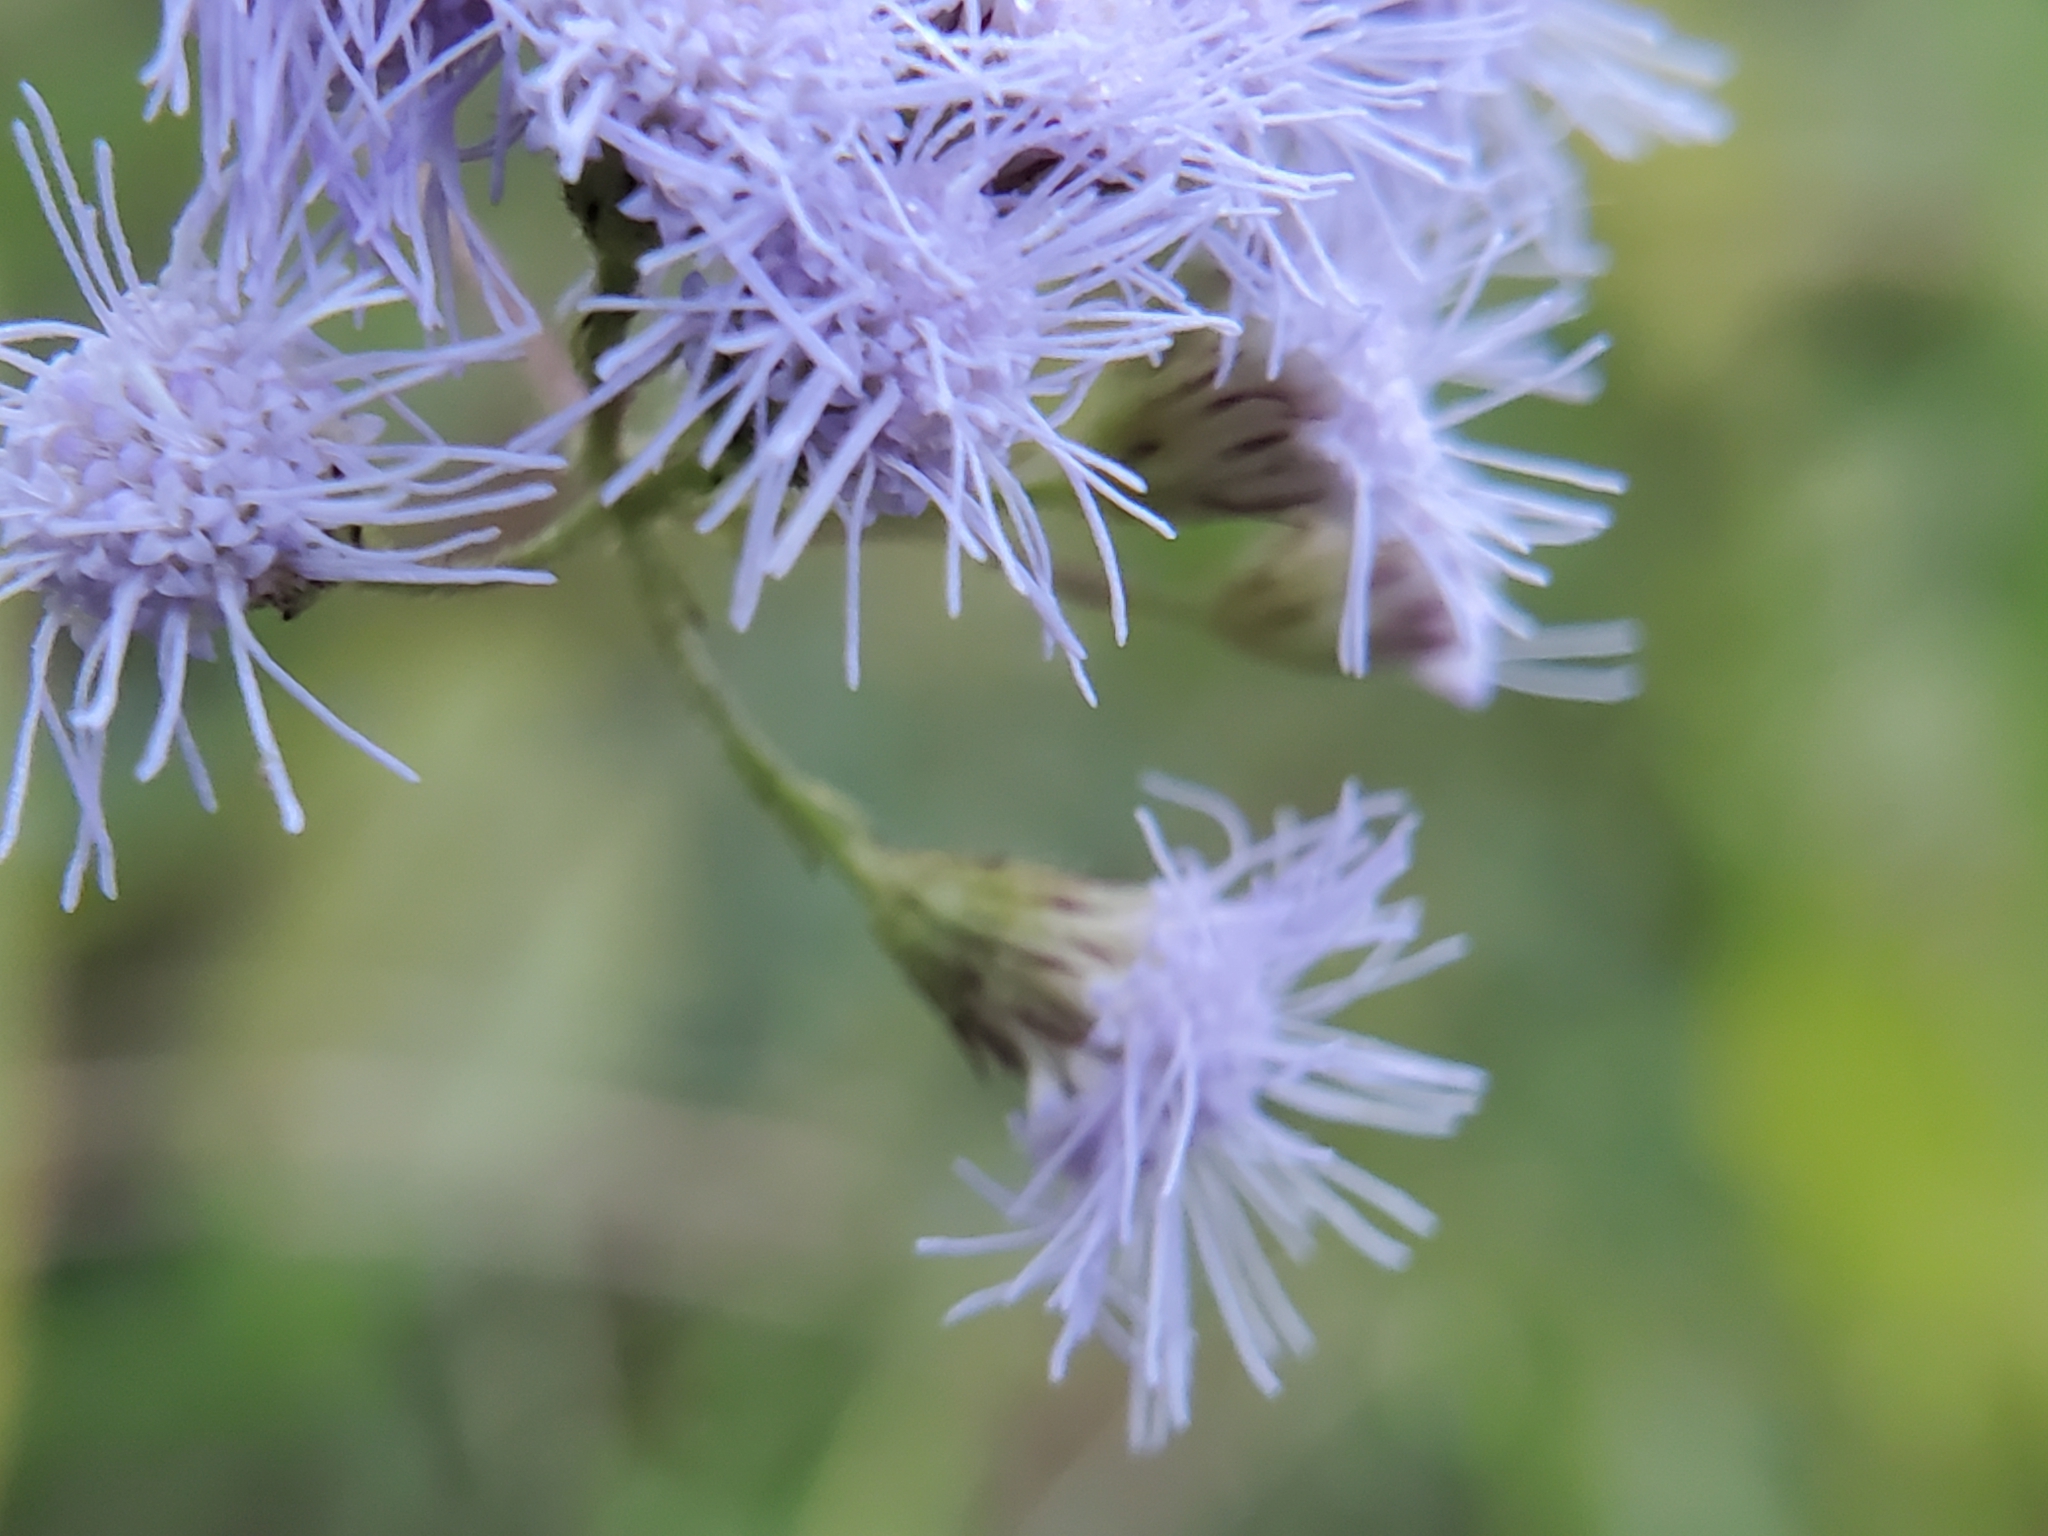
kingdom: Plantae
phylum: Tracheophyta
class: Magnoliopsida
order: Asterales
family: Asteraceae
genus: Conoclinium
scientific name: Conoclinium coelestinum
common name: Blue mistflower
